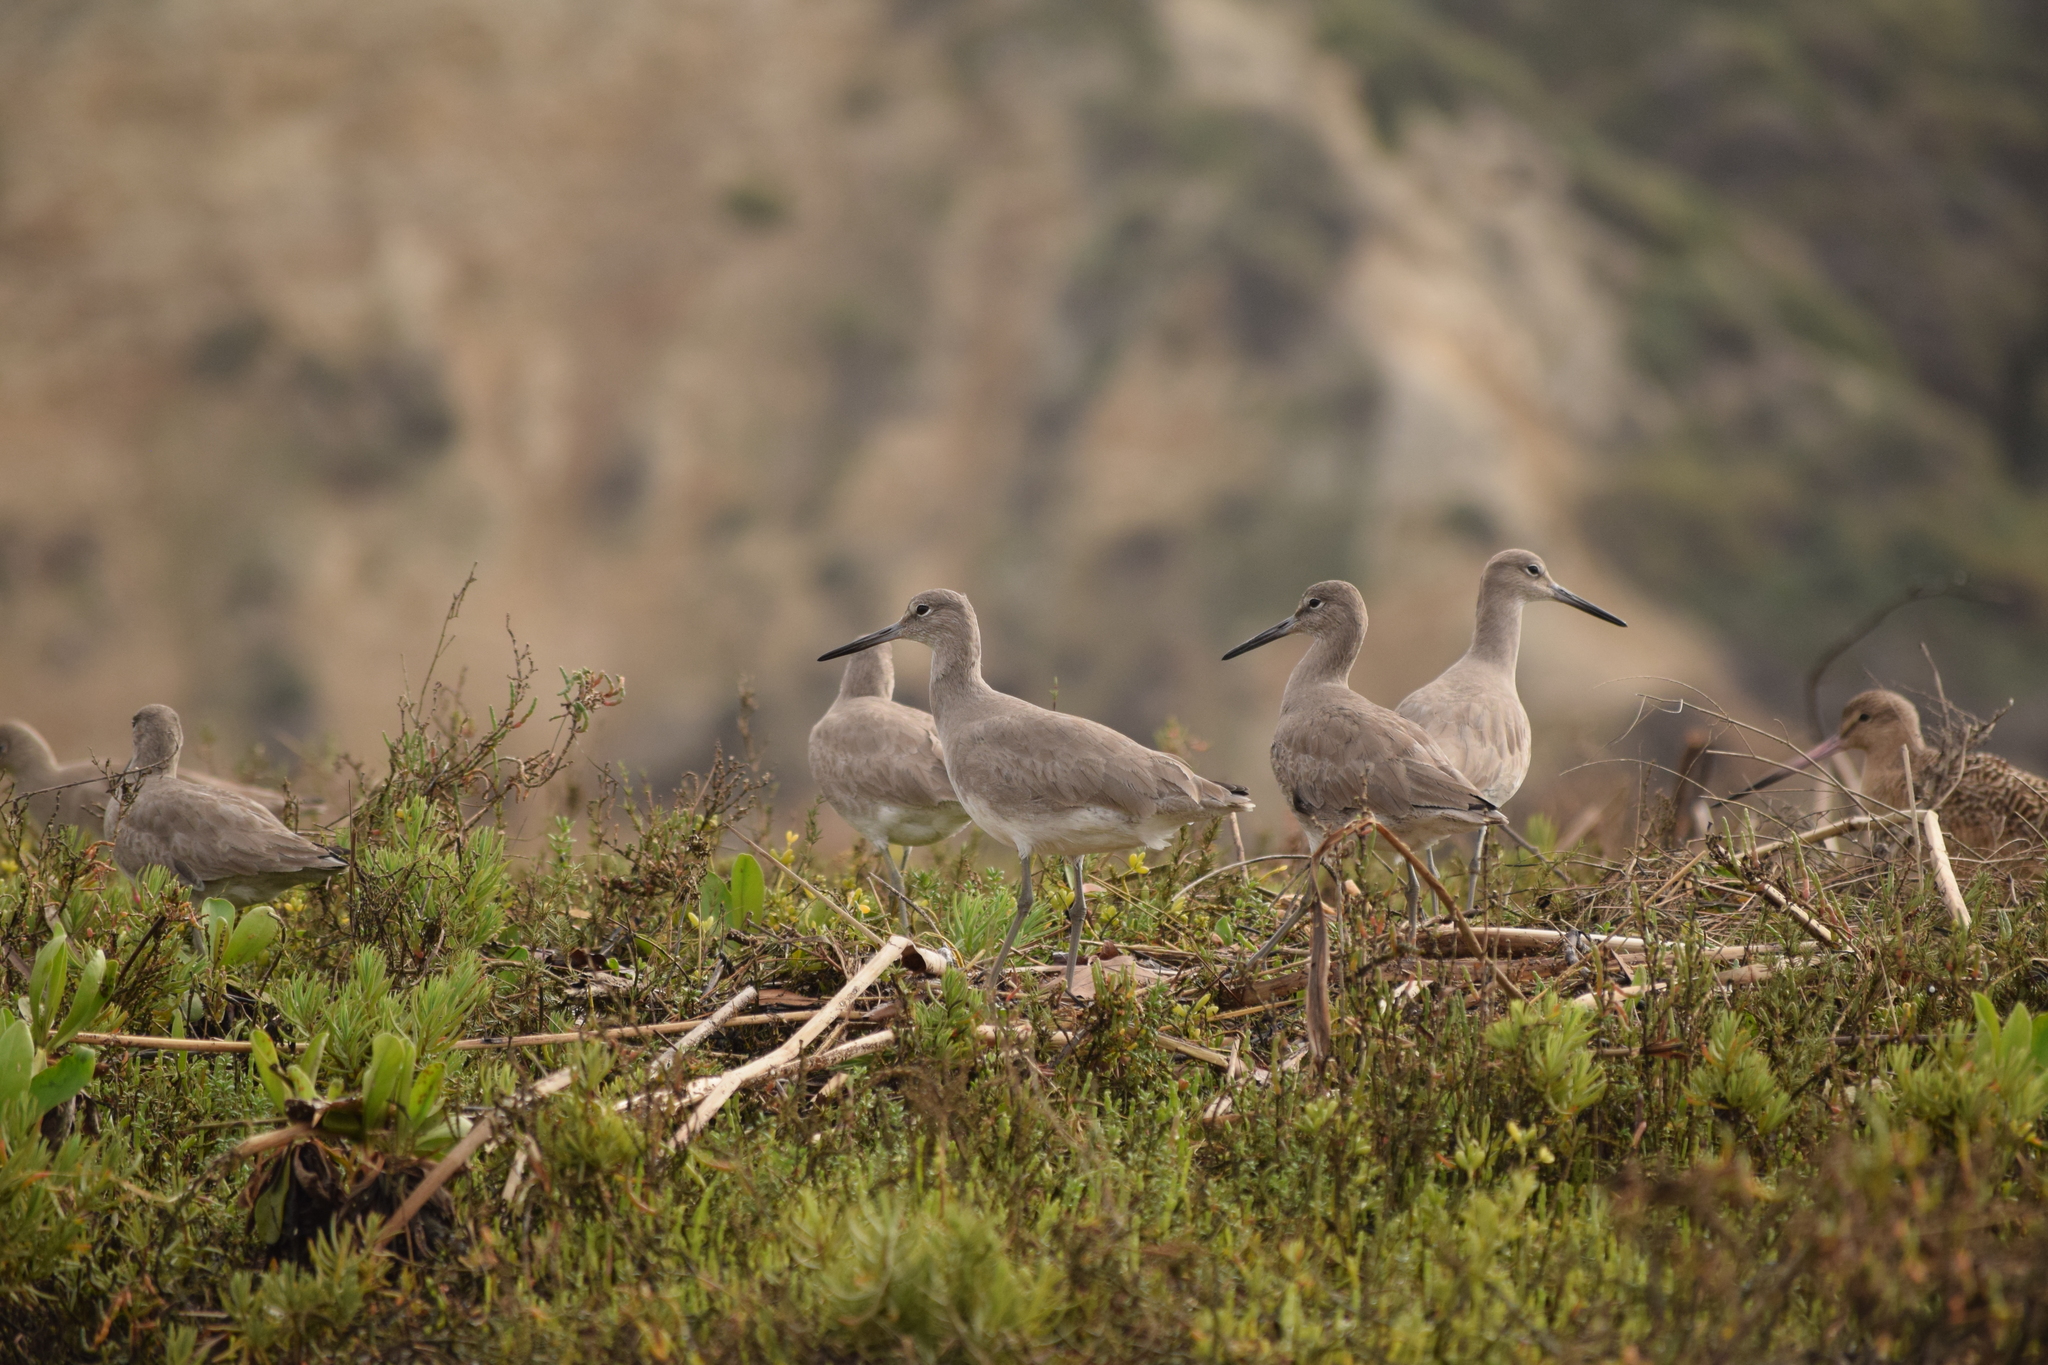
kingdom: Animalia
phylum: Chordata
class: Aves
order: Charadriiformes
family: Scolopacidae
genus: Tringa
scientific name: Tringa semipalmata
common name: Willet
